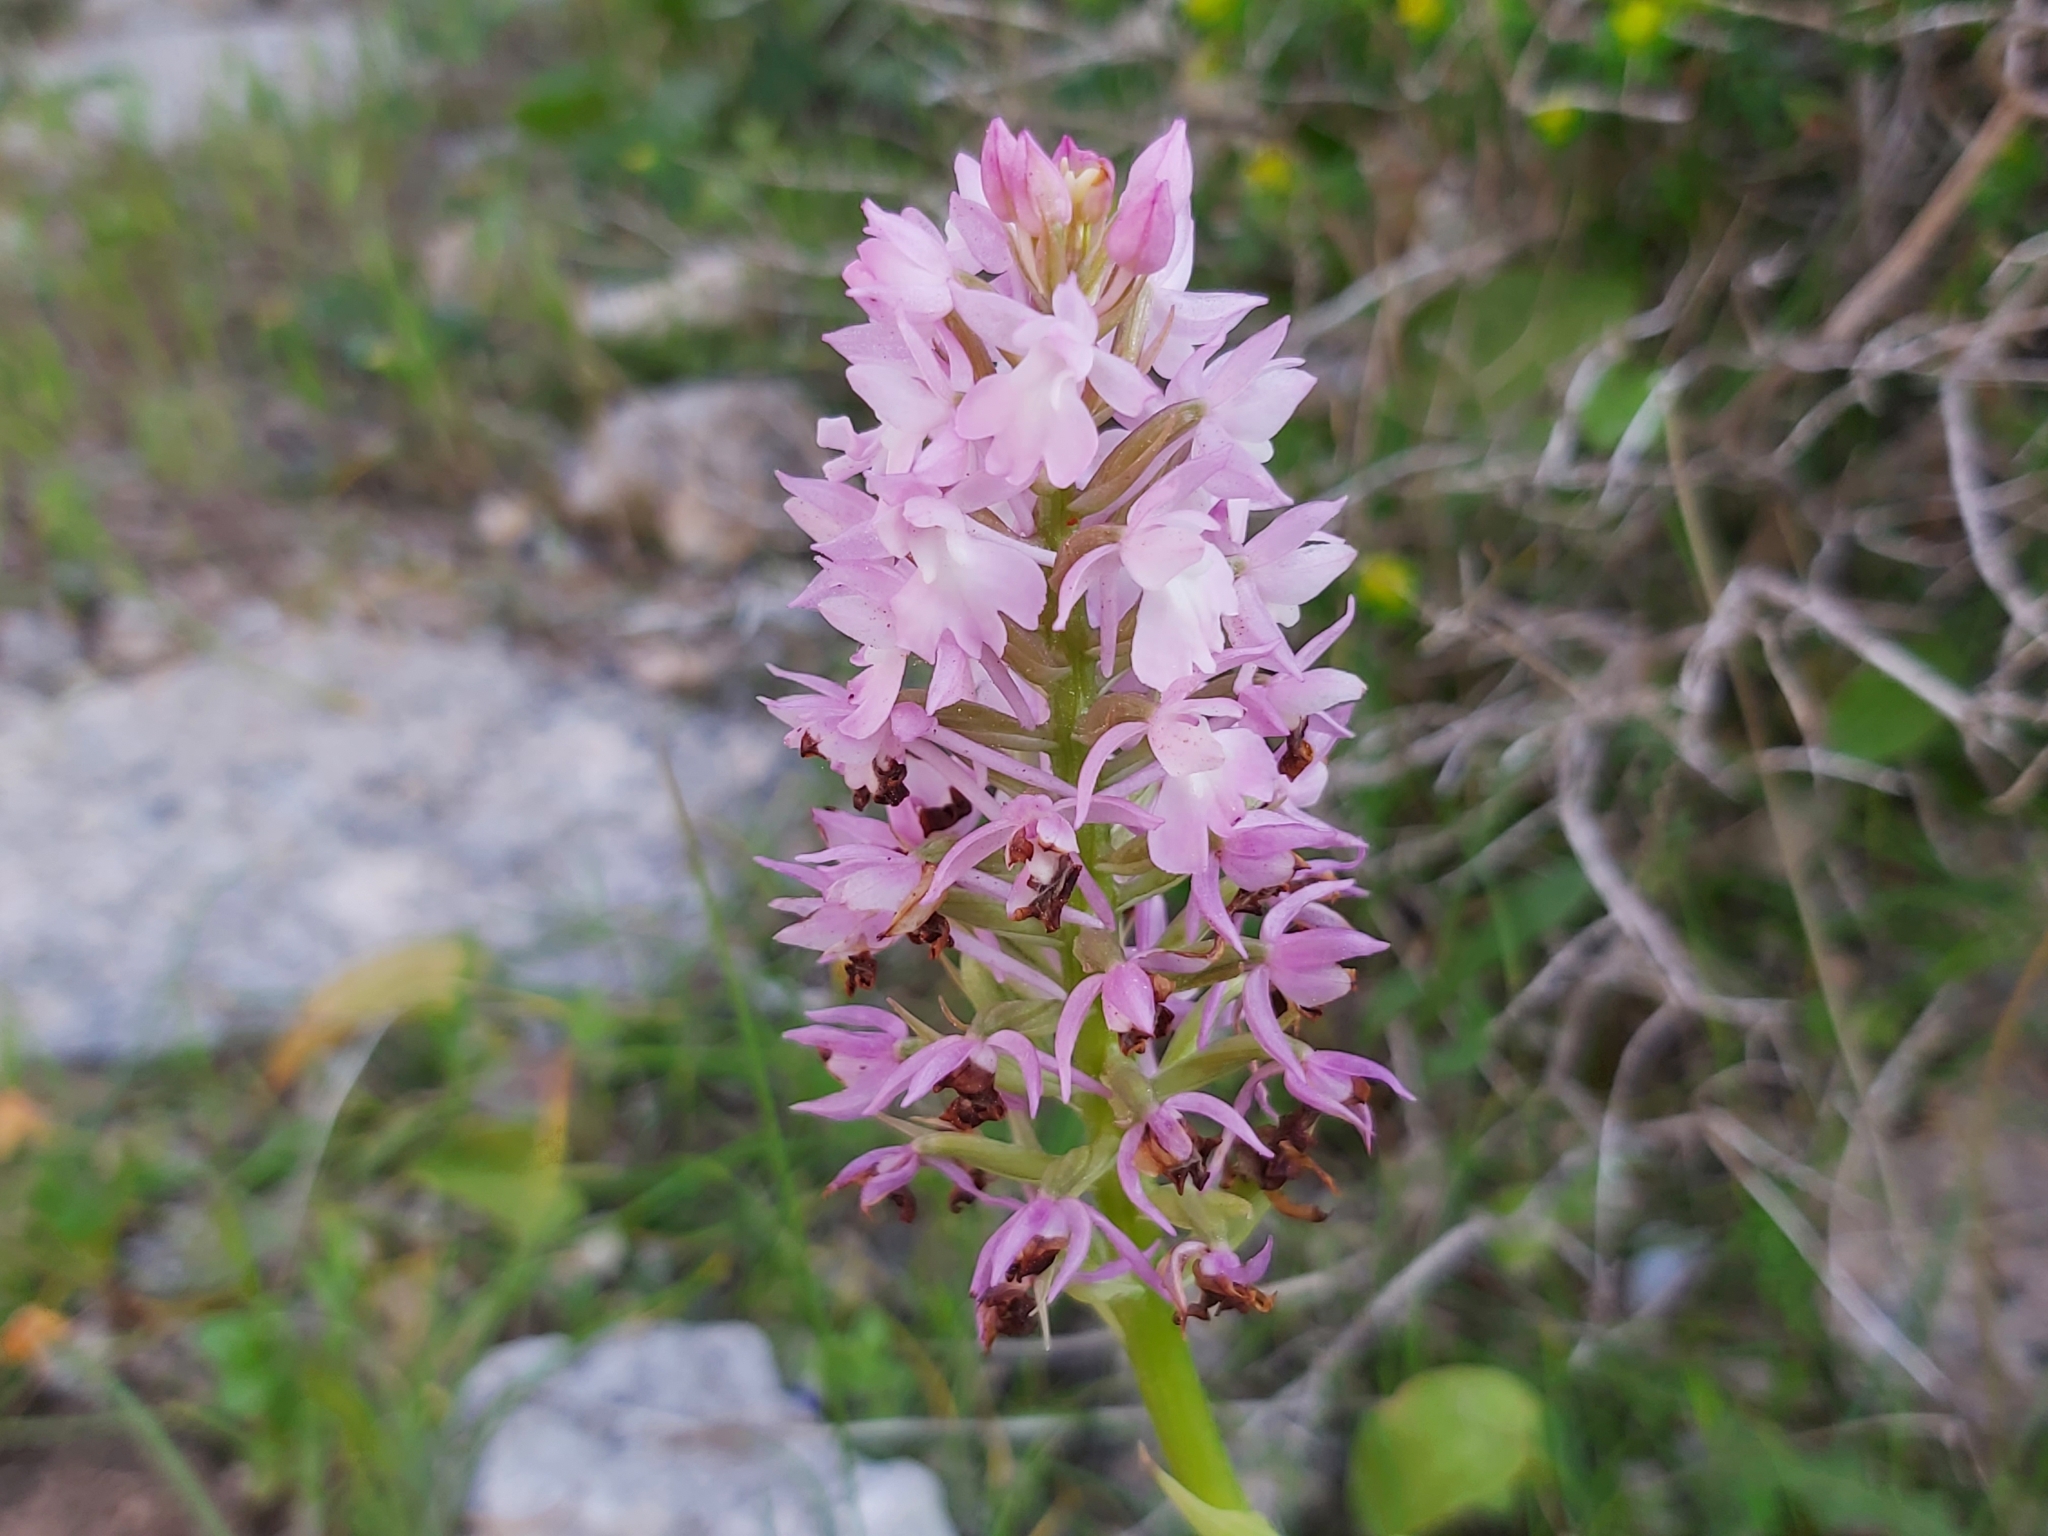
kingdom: Plantae
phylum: Tracheophyta
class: Liliopsida
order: Asparagales
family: Orchidaceae
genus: Anacamptis
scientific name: Anacamptis pyramidalis
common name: Pyramidal orchid
